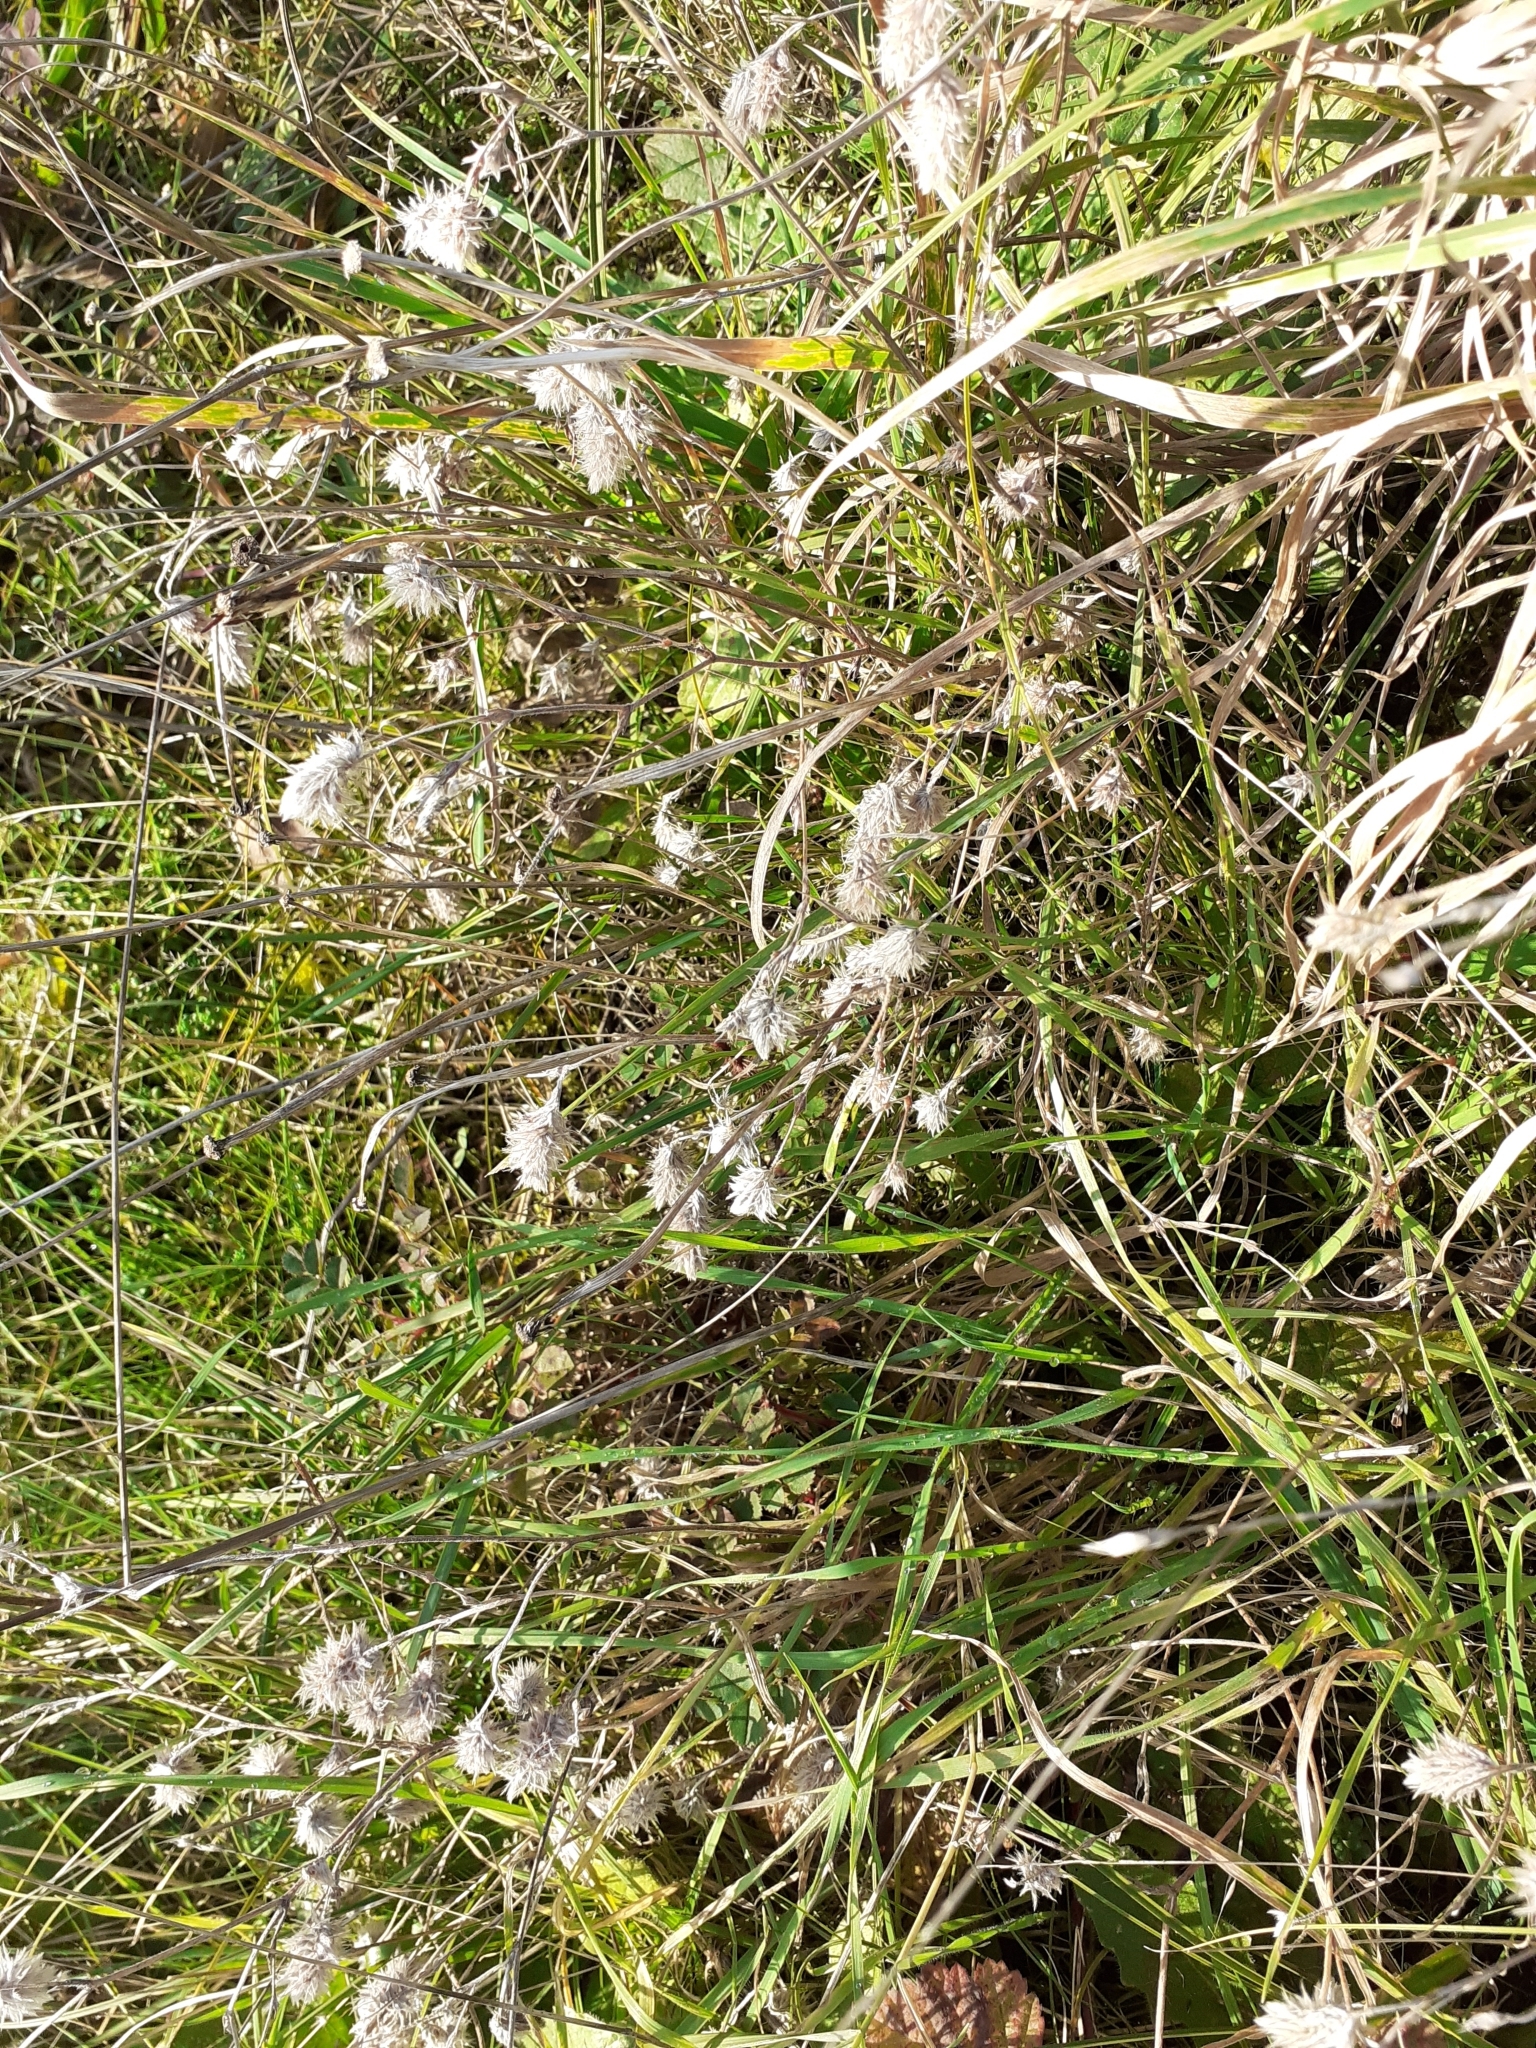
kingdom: Plantae
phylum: Tracheophyta
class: Magnoliopsida
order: Fabales
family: Fabaceae
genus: Trifolium
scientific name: Trifolium arvense
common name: Hare's-foot clover
